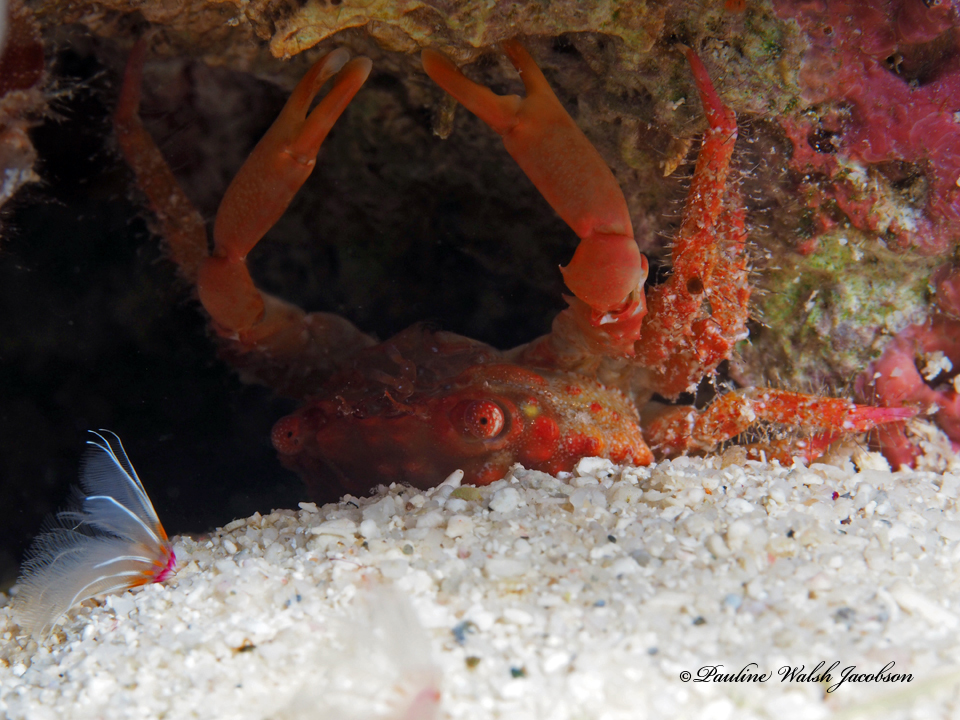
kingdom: Animalia
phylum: Arthropoda
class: Malacostraca
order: Decapoda
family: Mithracidae
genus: Mithraculus
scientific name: Mithraculus forceps
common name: Red-ridged clinging crab
